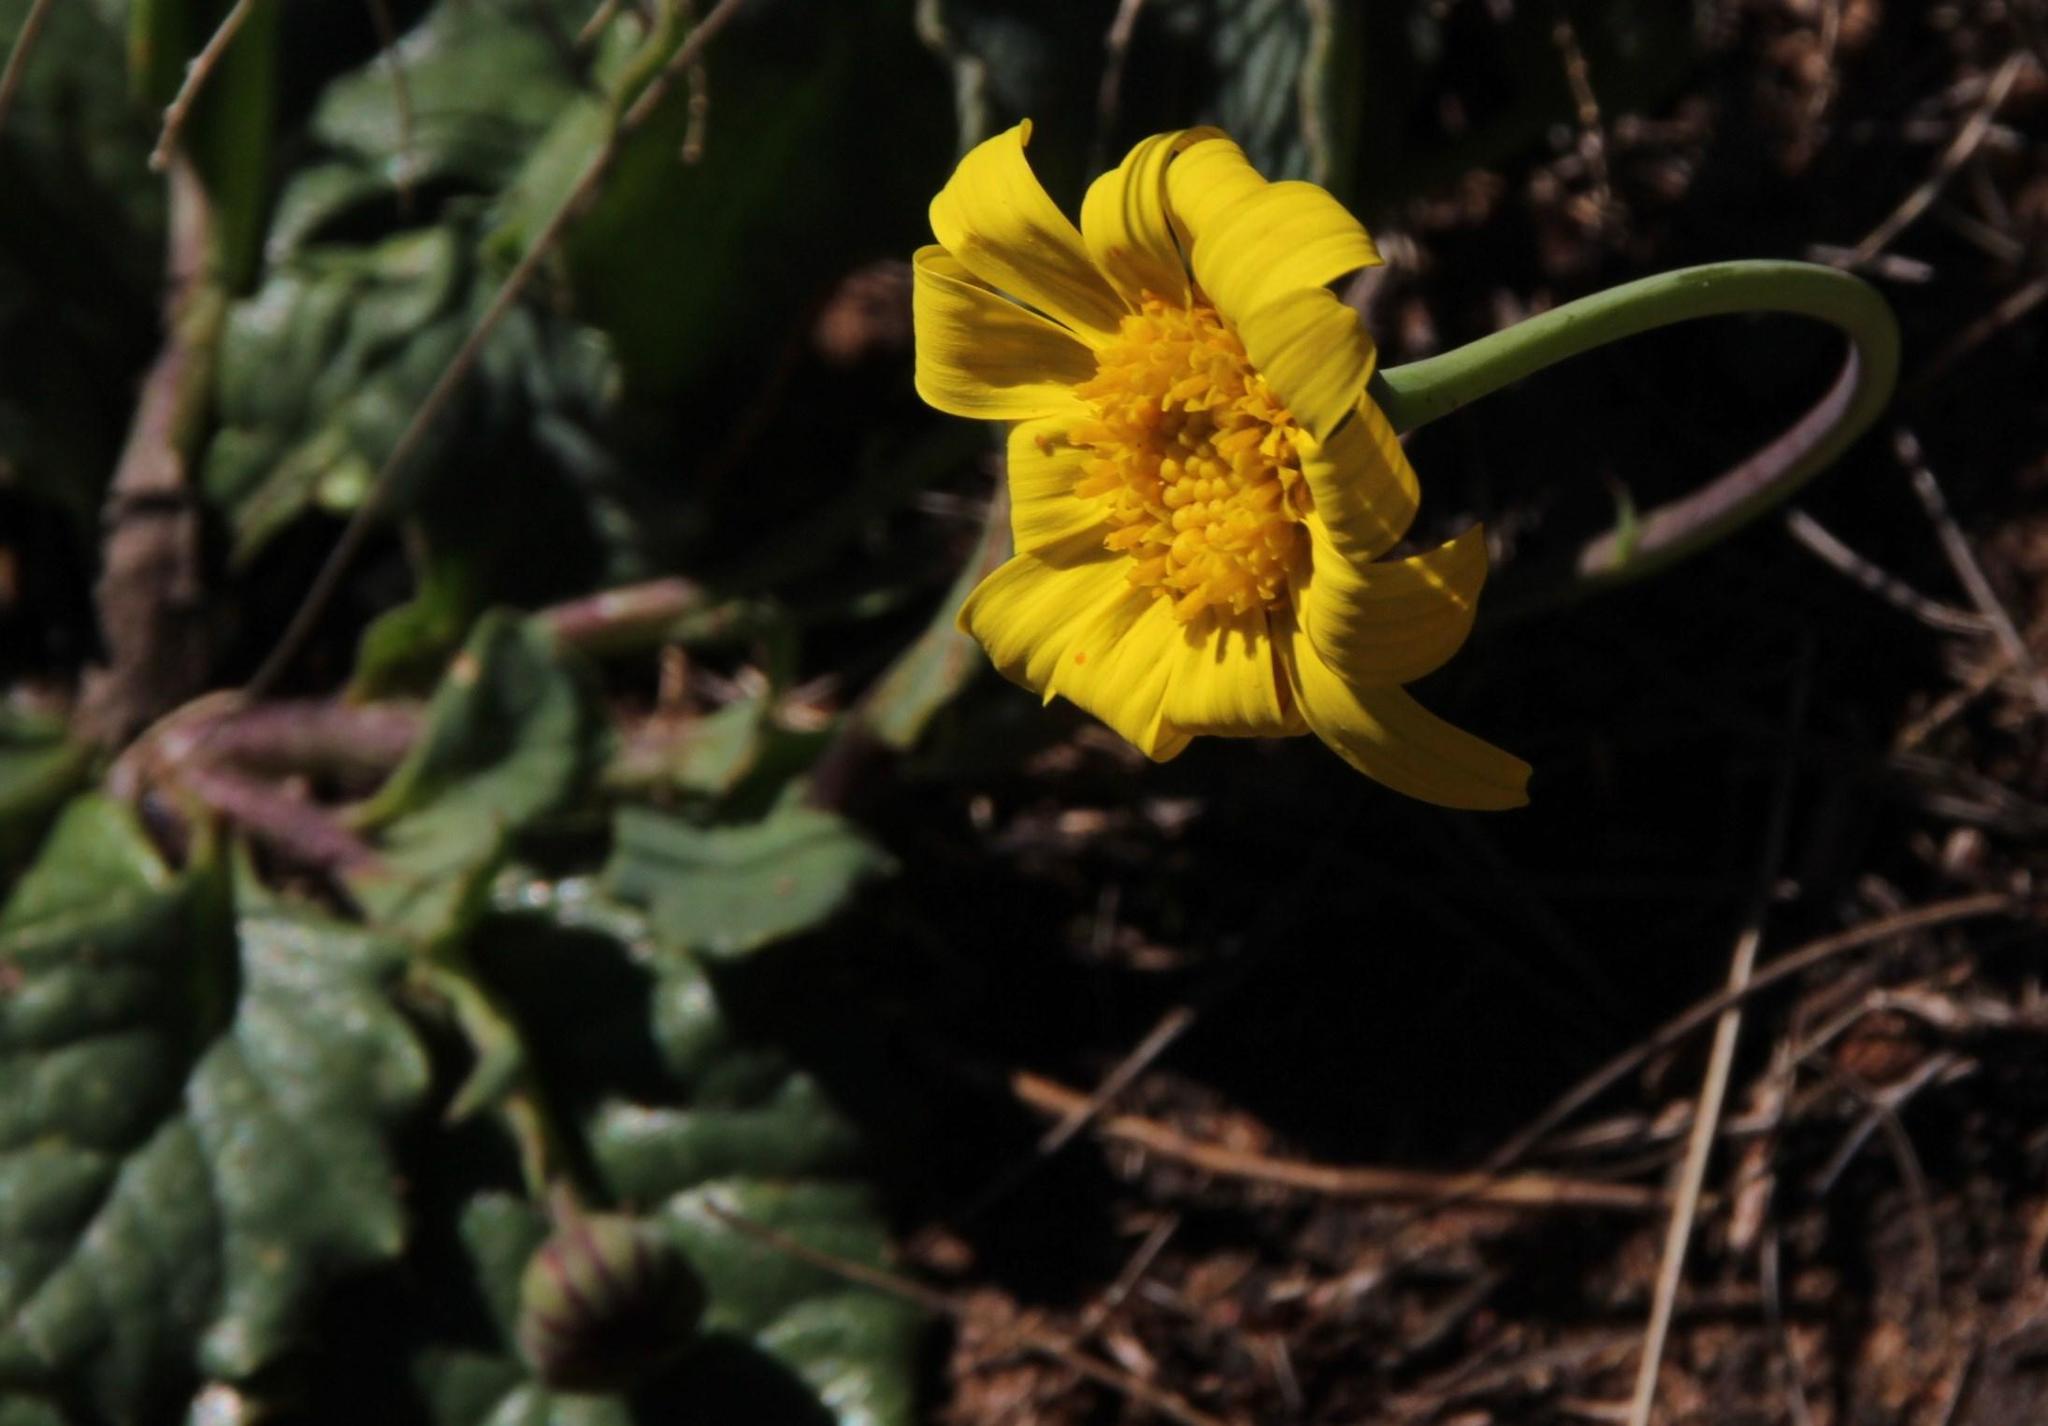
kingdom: Plantae
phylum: Tracheophyta
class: Magnoliopsida
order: Asterales
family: Asteraceae
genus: Othonna
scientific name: Othonna heterophylla
